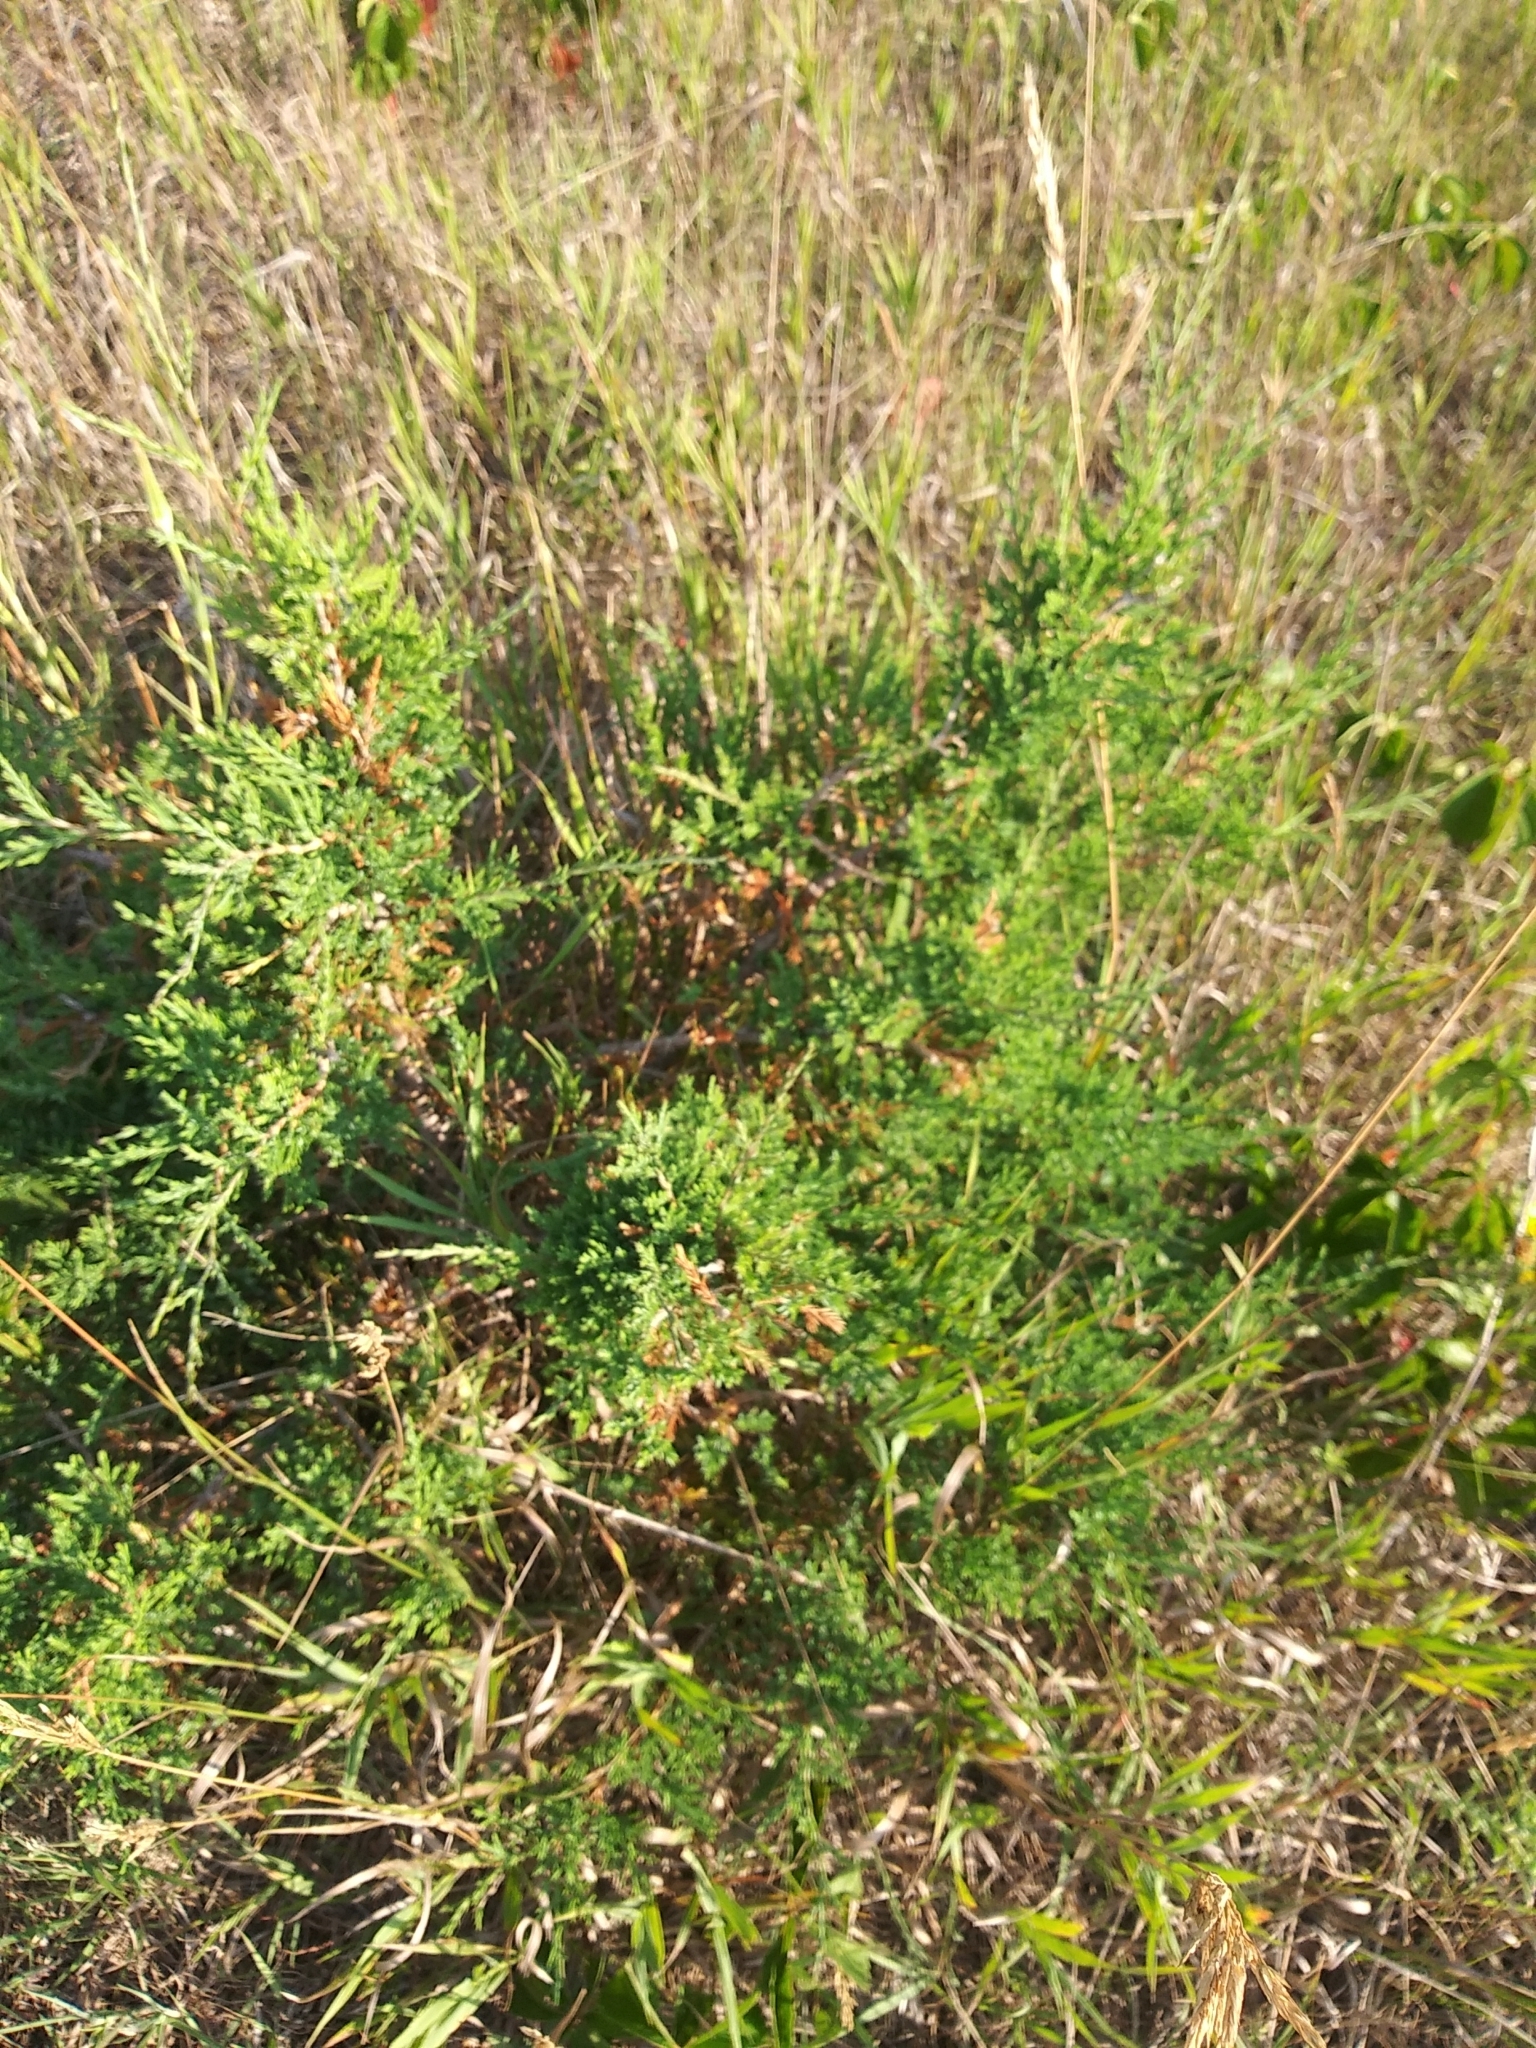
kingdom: Plantae
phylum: Tracheophyta
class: Pinopsida
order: Pinales
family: Cupressaceae
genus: Juniperus
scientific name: Juniperus virginiana
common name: Red juniper
